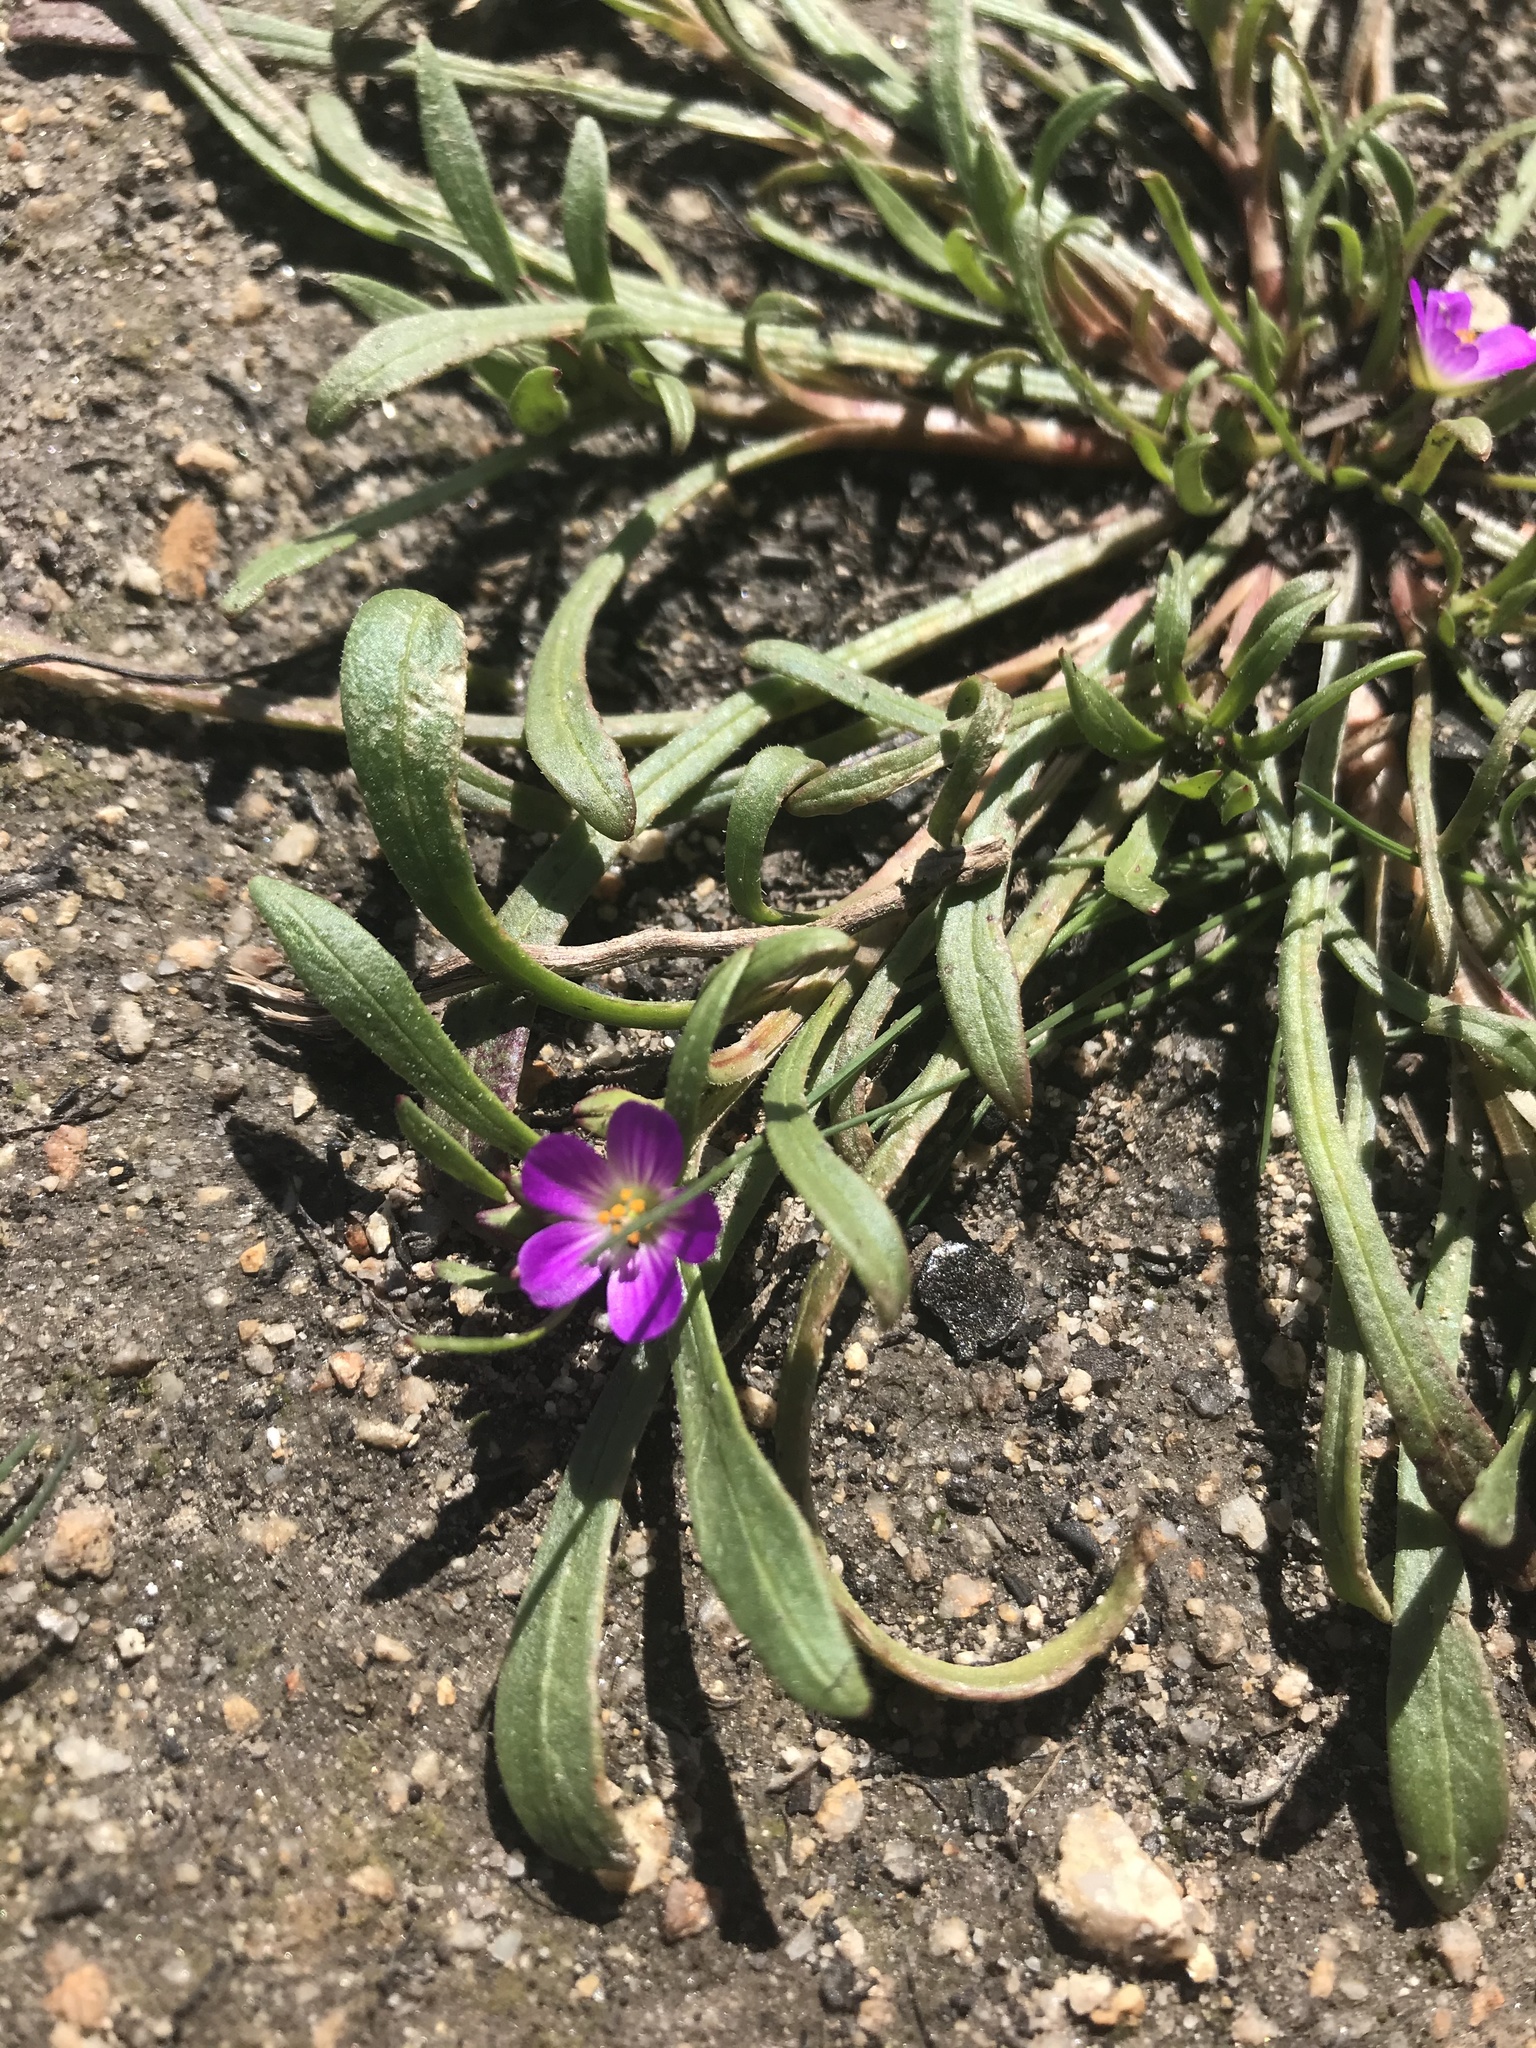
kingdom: Plantae
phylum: Tracheophyta
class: Magnoliopsida
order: Caryophyllales
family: Montiaceae
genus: Calandrinia
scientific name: Calandrinia menziesii
